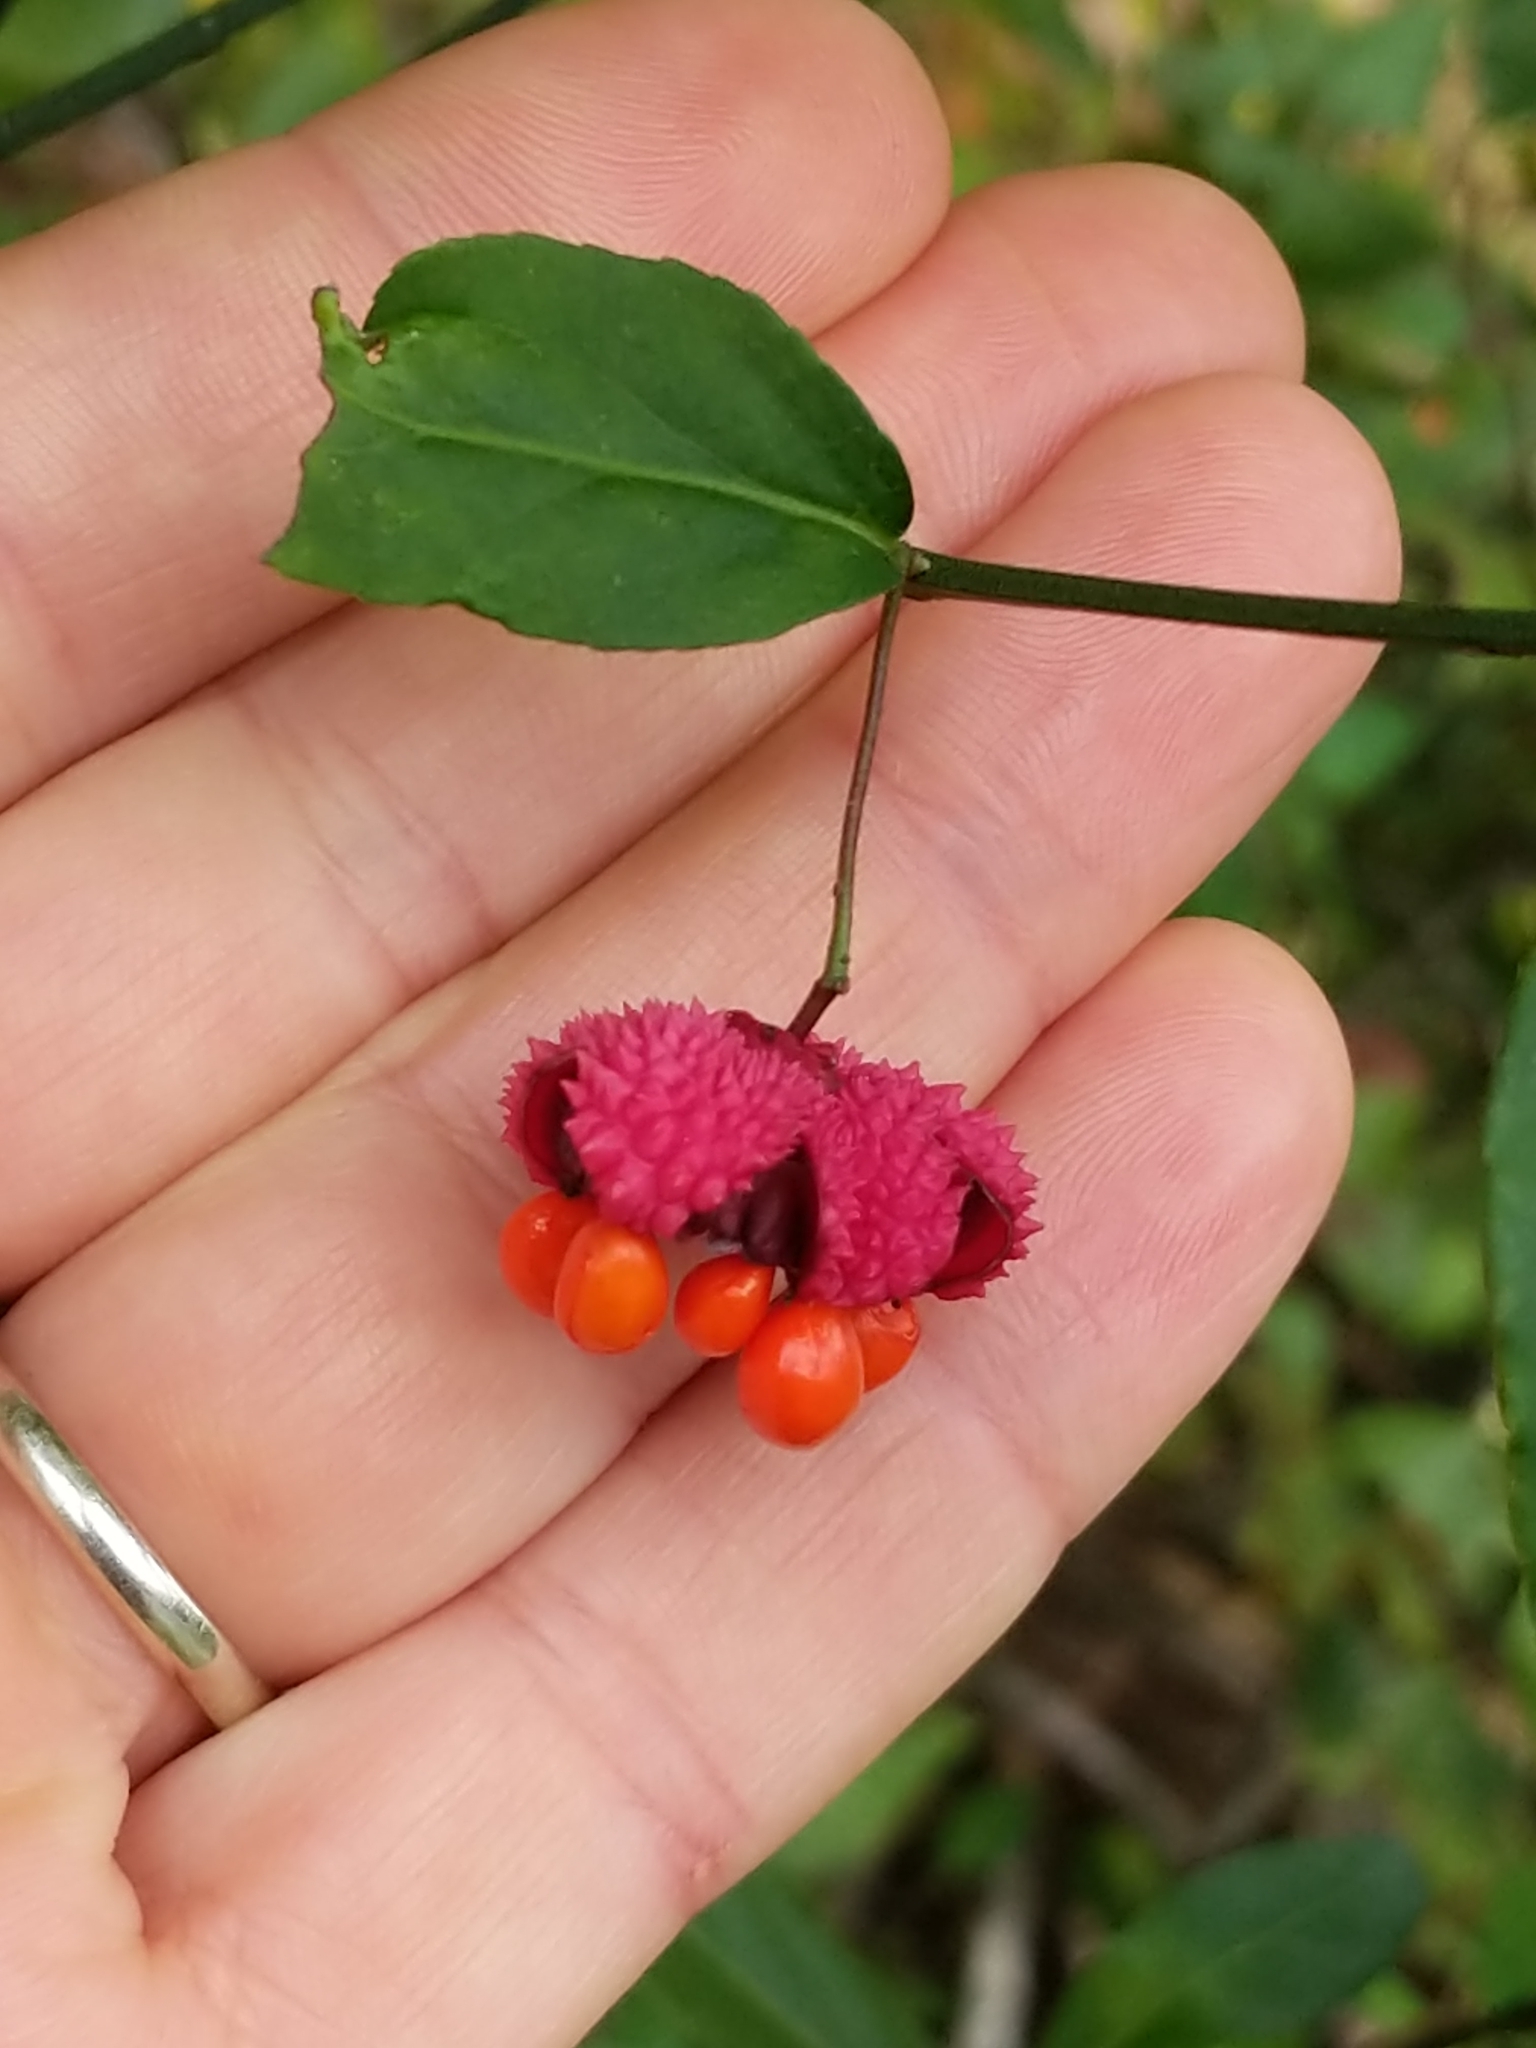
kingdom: Plantae
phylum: Tracheophyta
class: Magnoliopsida
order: Celastrales
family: Celastraceae
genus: Euonymus
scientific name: Euonymus americanus
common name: Bursting-heart
